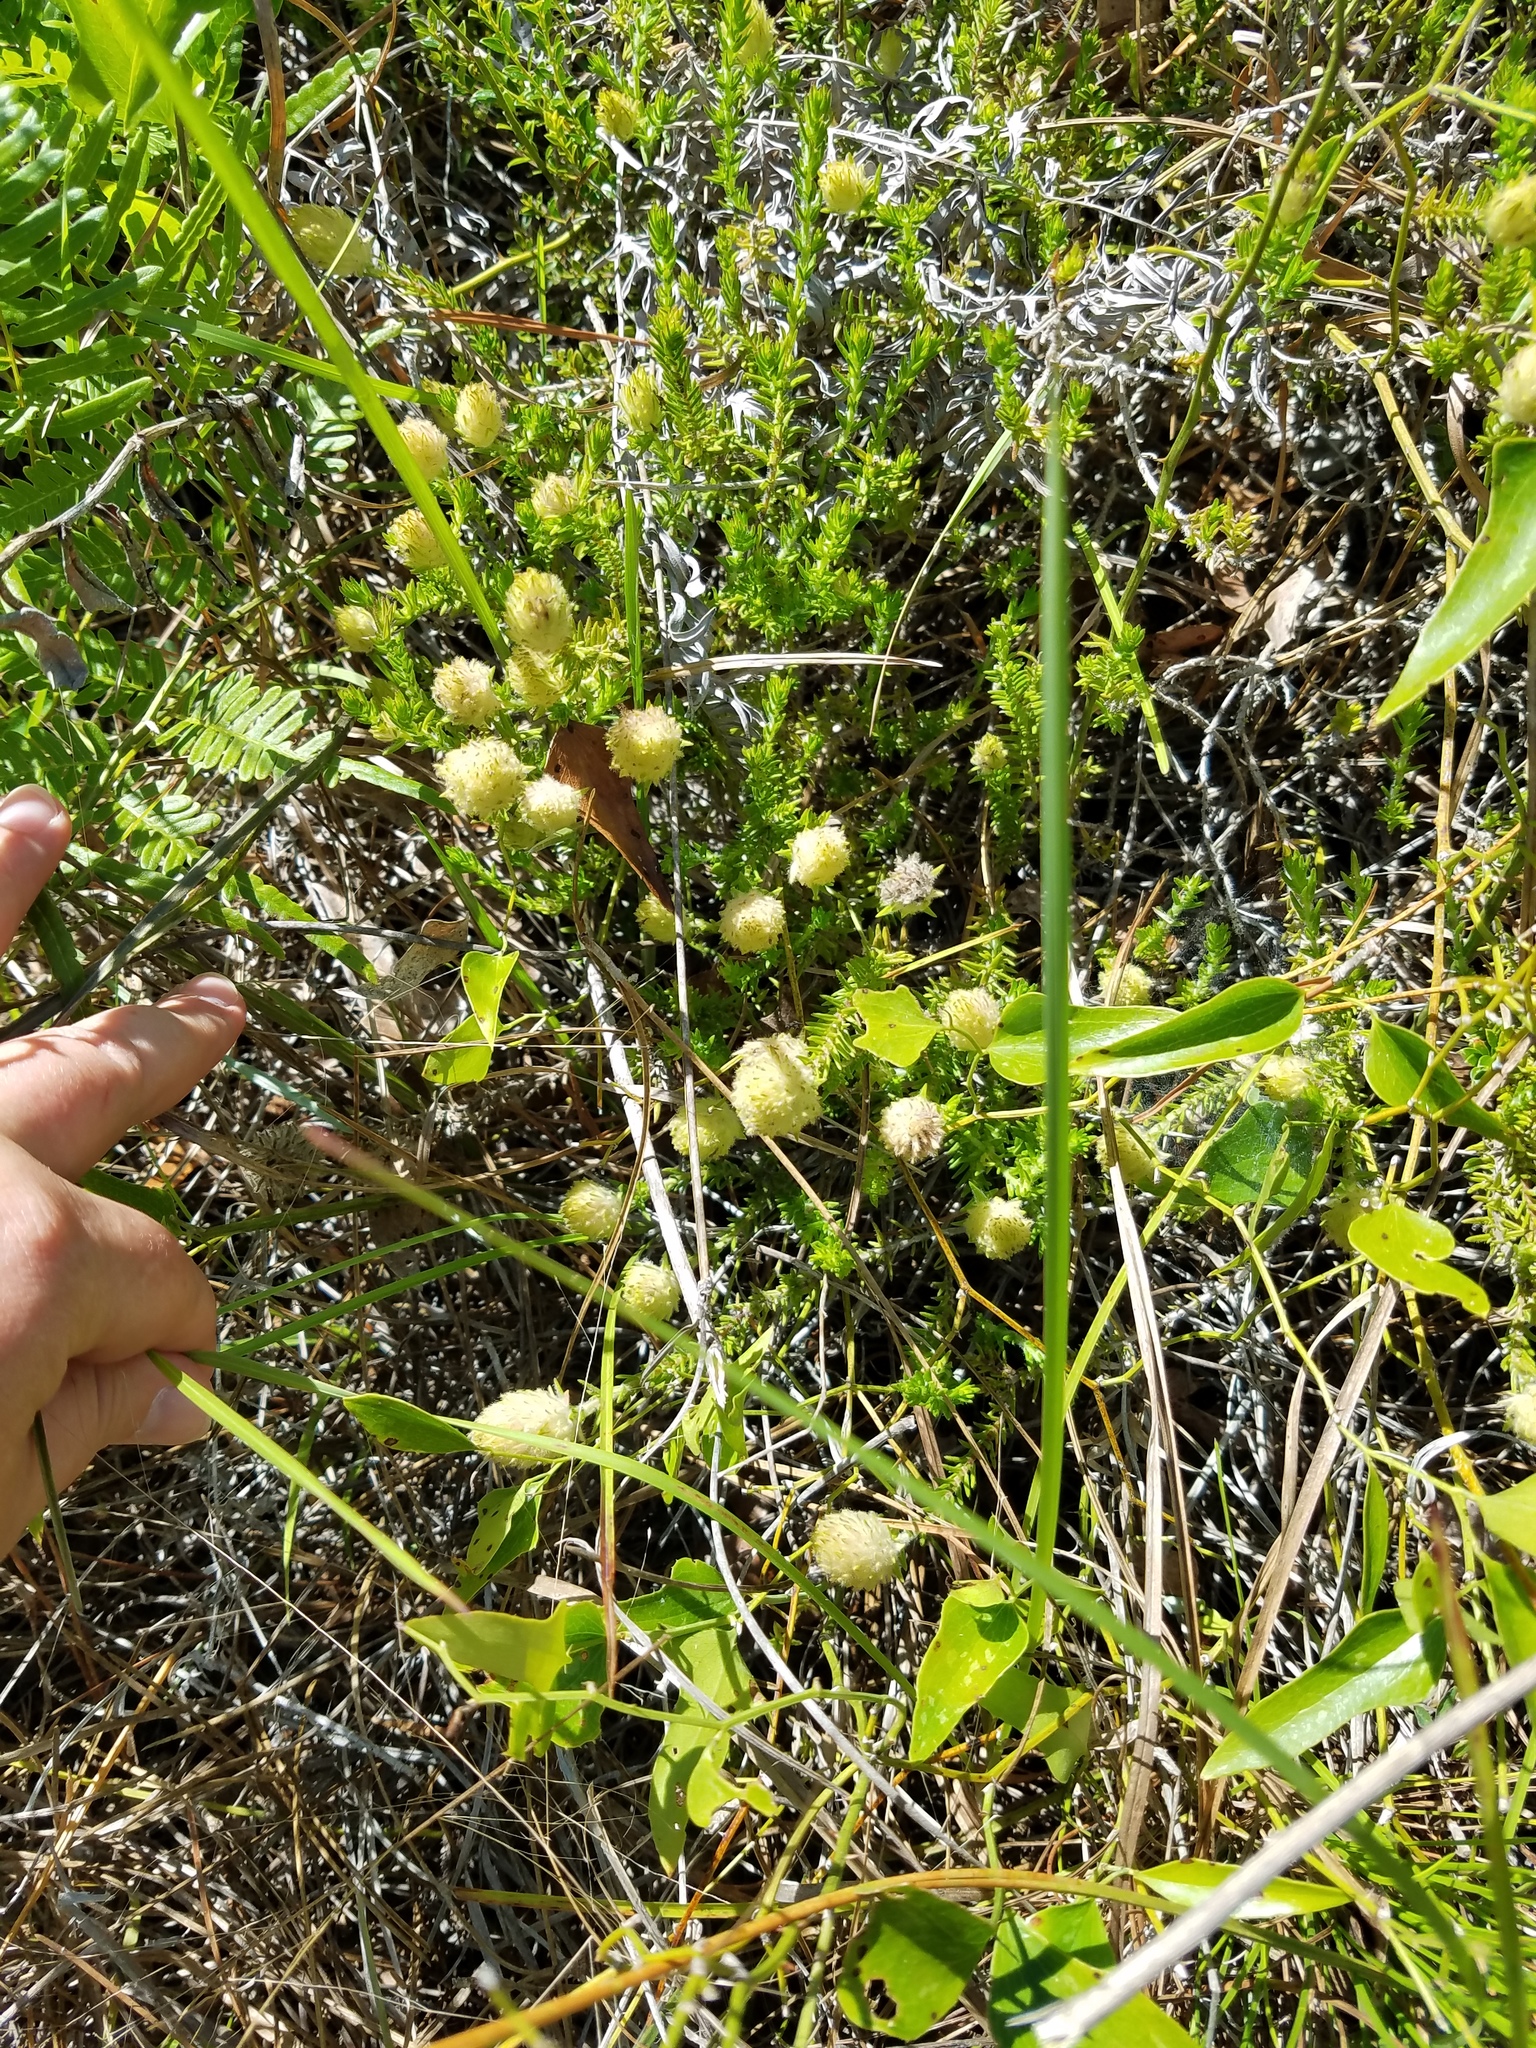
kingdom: Plantae
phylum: Tracheophyta
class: Magnoliopsida
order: Lamiales
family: Lamiaceae
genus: Piloblephis
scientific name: Piloblephis rigida
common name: Wild pennyroyal
